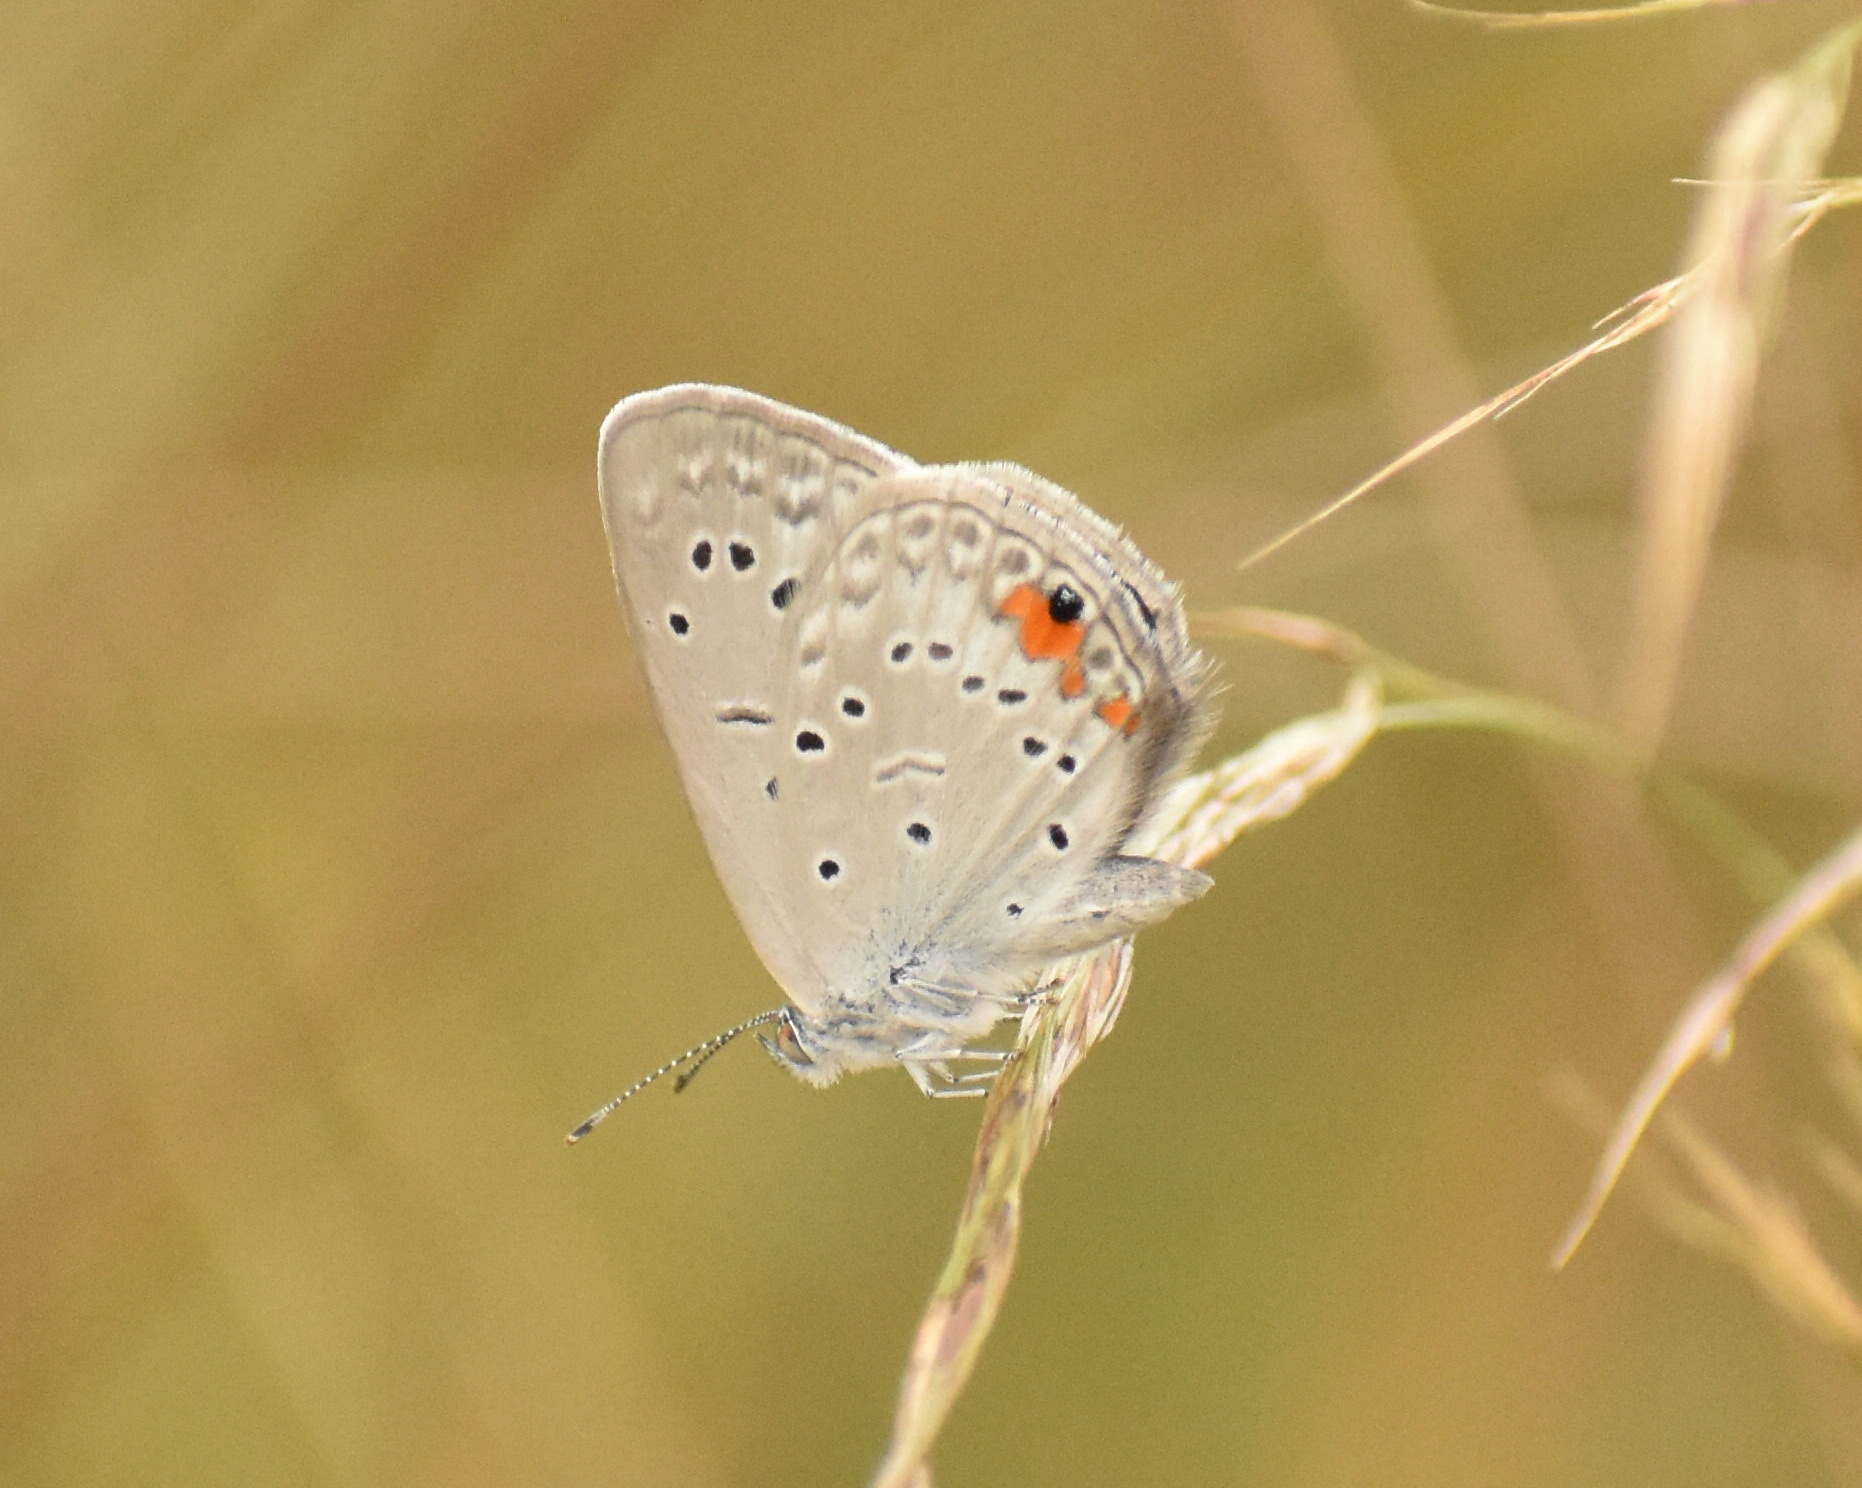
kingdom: Animalia
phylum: Arthropoda
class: Insecta
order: Lepidoptera
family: Lycaenidae
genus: Cupido
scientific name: Cupido cissus
